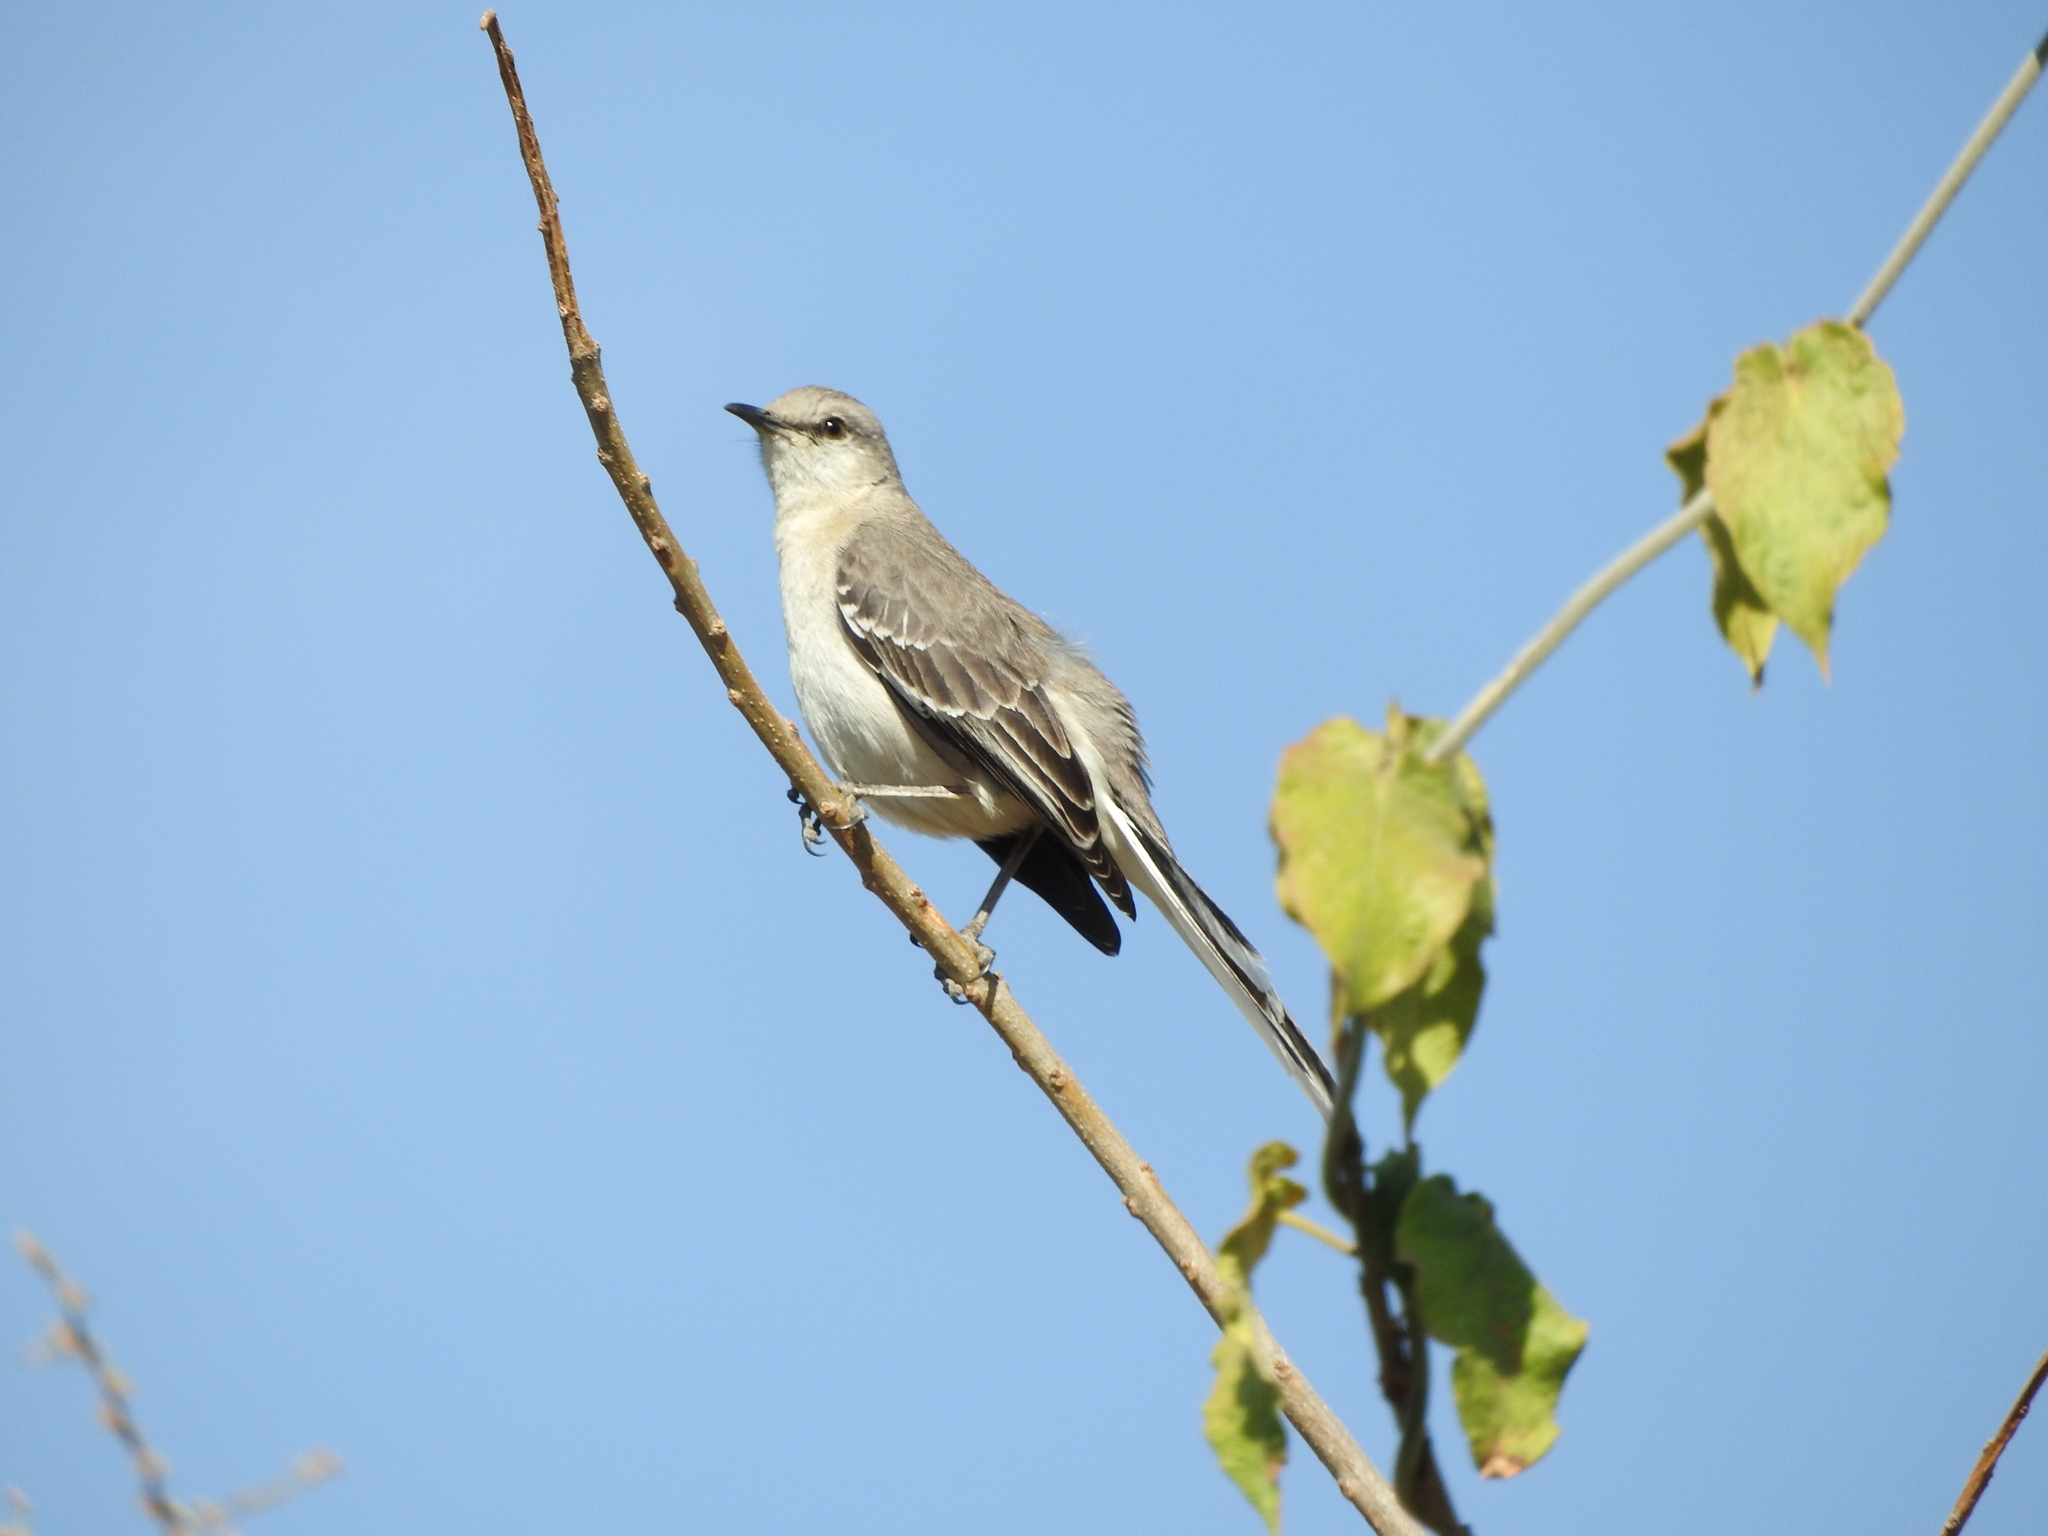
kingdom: Animalia
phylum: Chordata
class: Aves
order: Passeriformes
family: Mimidae
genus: Mimus
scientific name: Mimus polyglottos
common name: Northern mockingbird
